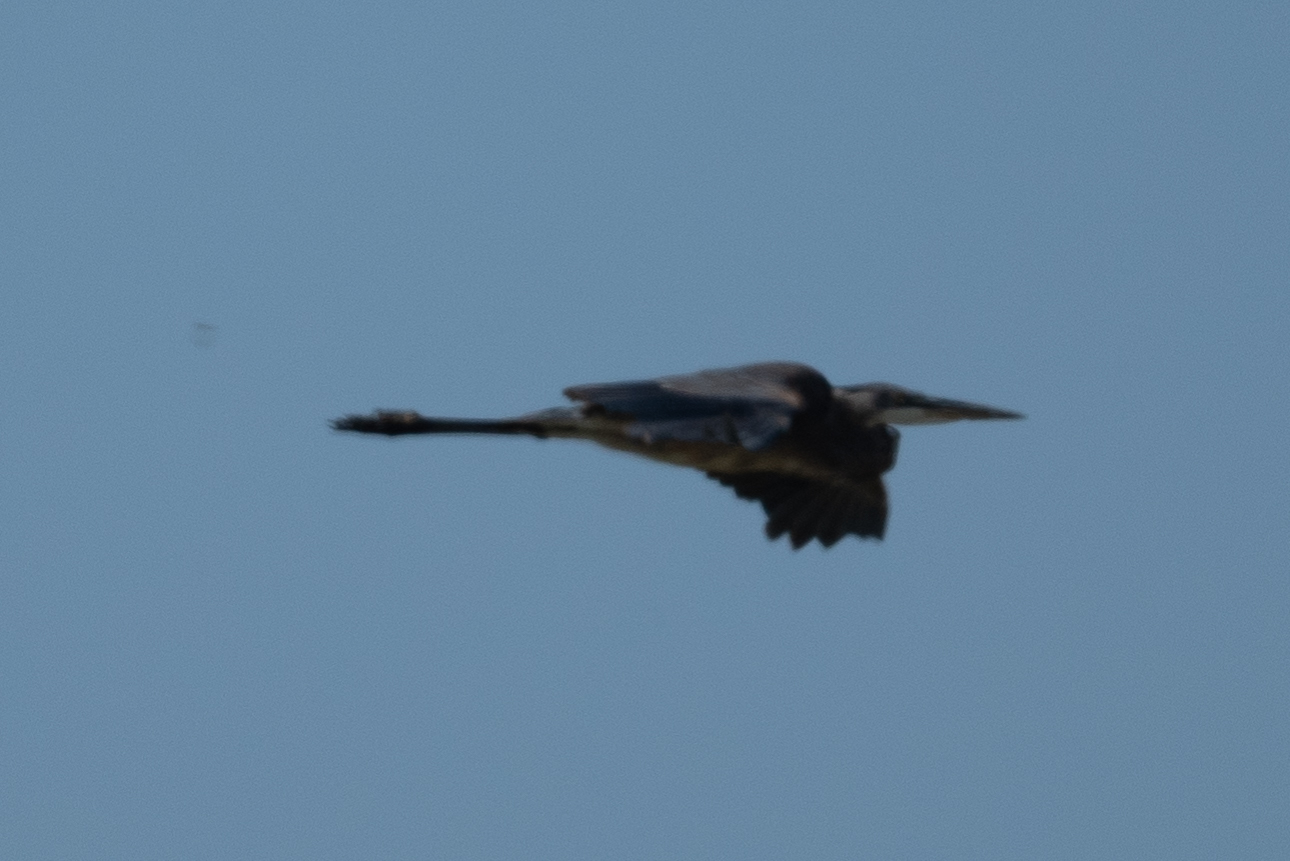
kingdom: Animalia
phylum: Chordata
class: Aves
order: Pelecaniformes
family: Ardeidae
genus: Ardea
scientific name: Ardea herodias
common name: Great blue heron
